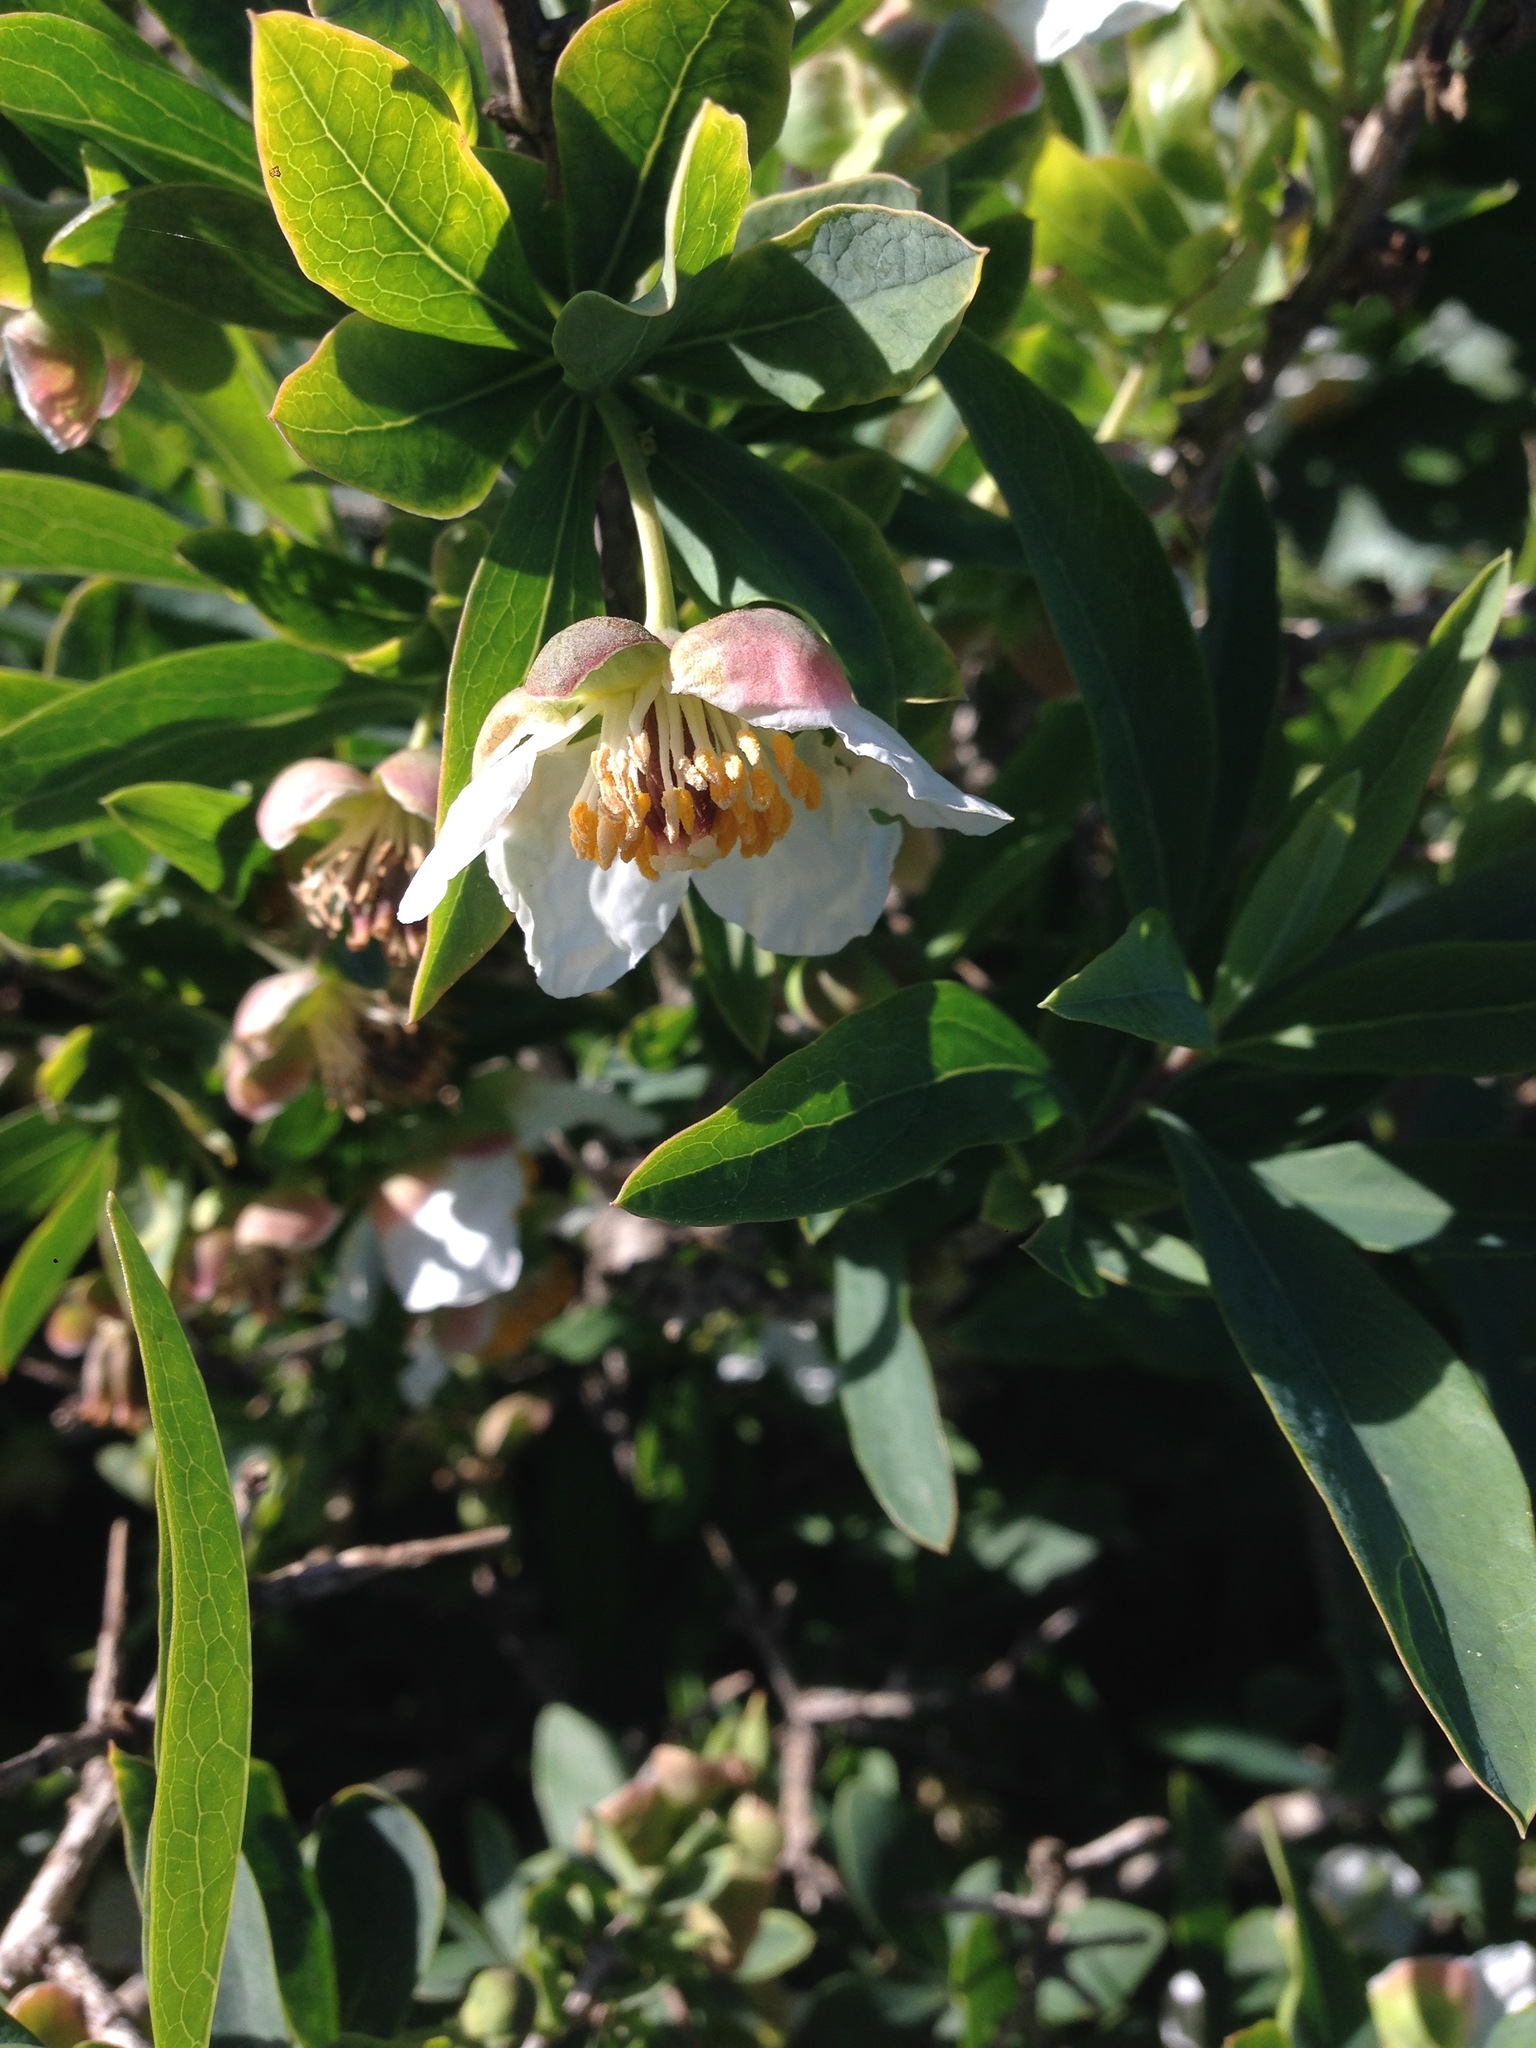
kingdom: Plantae
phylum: Tracheophyta
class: Magnoliopsida
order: Crossosomatales
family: Crossosomataceae
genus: Crossosoma
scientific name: Crossosoma californicum
